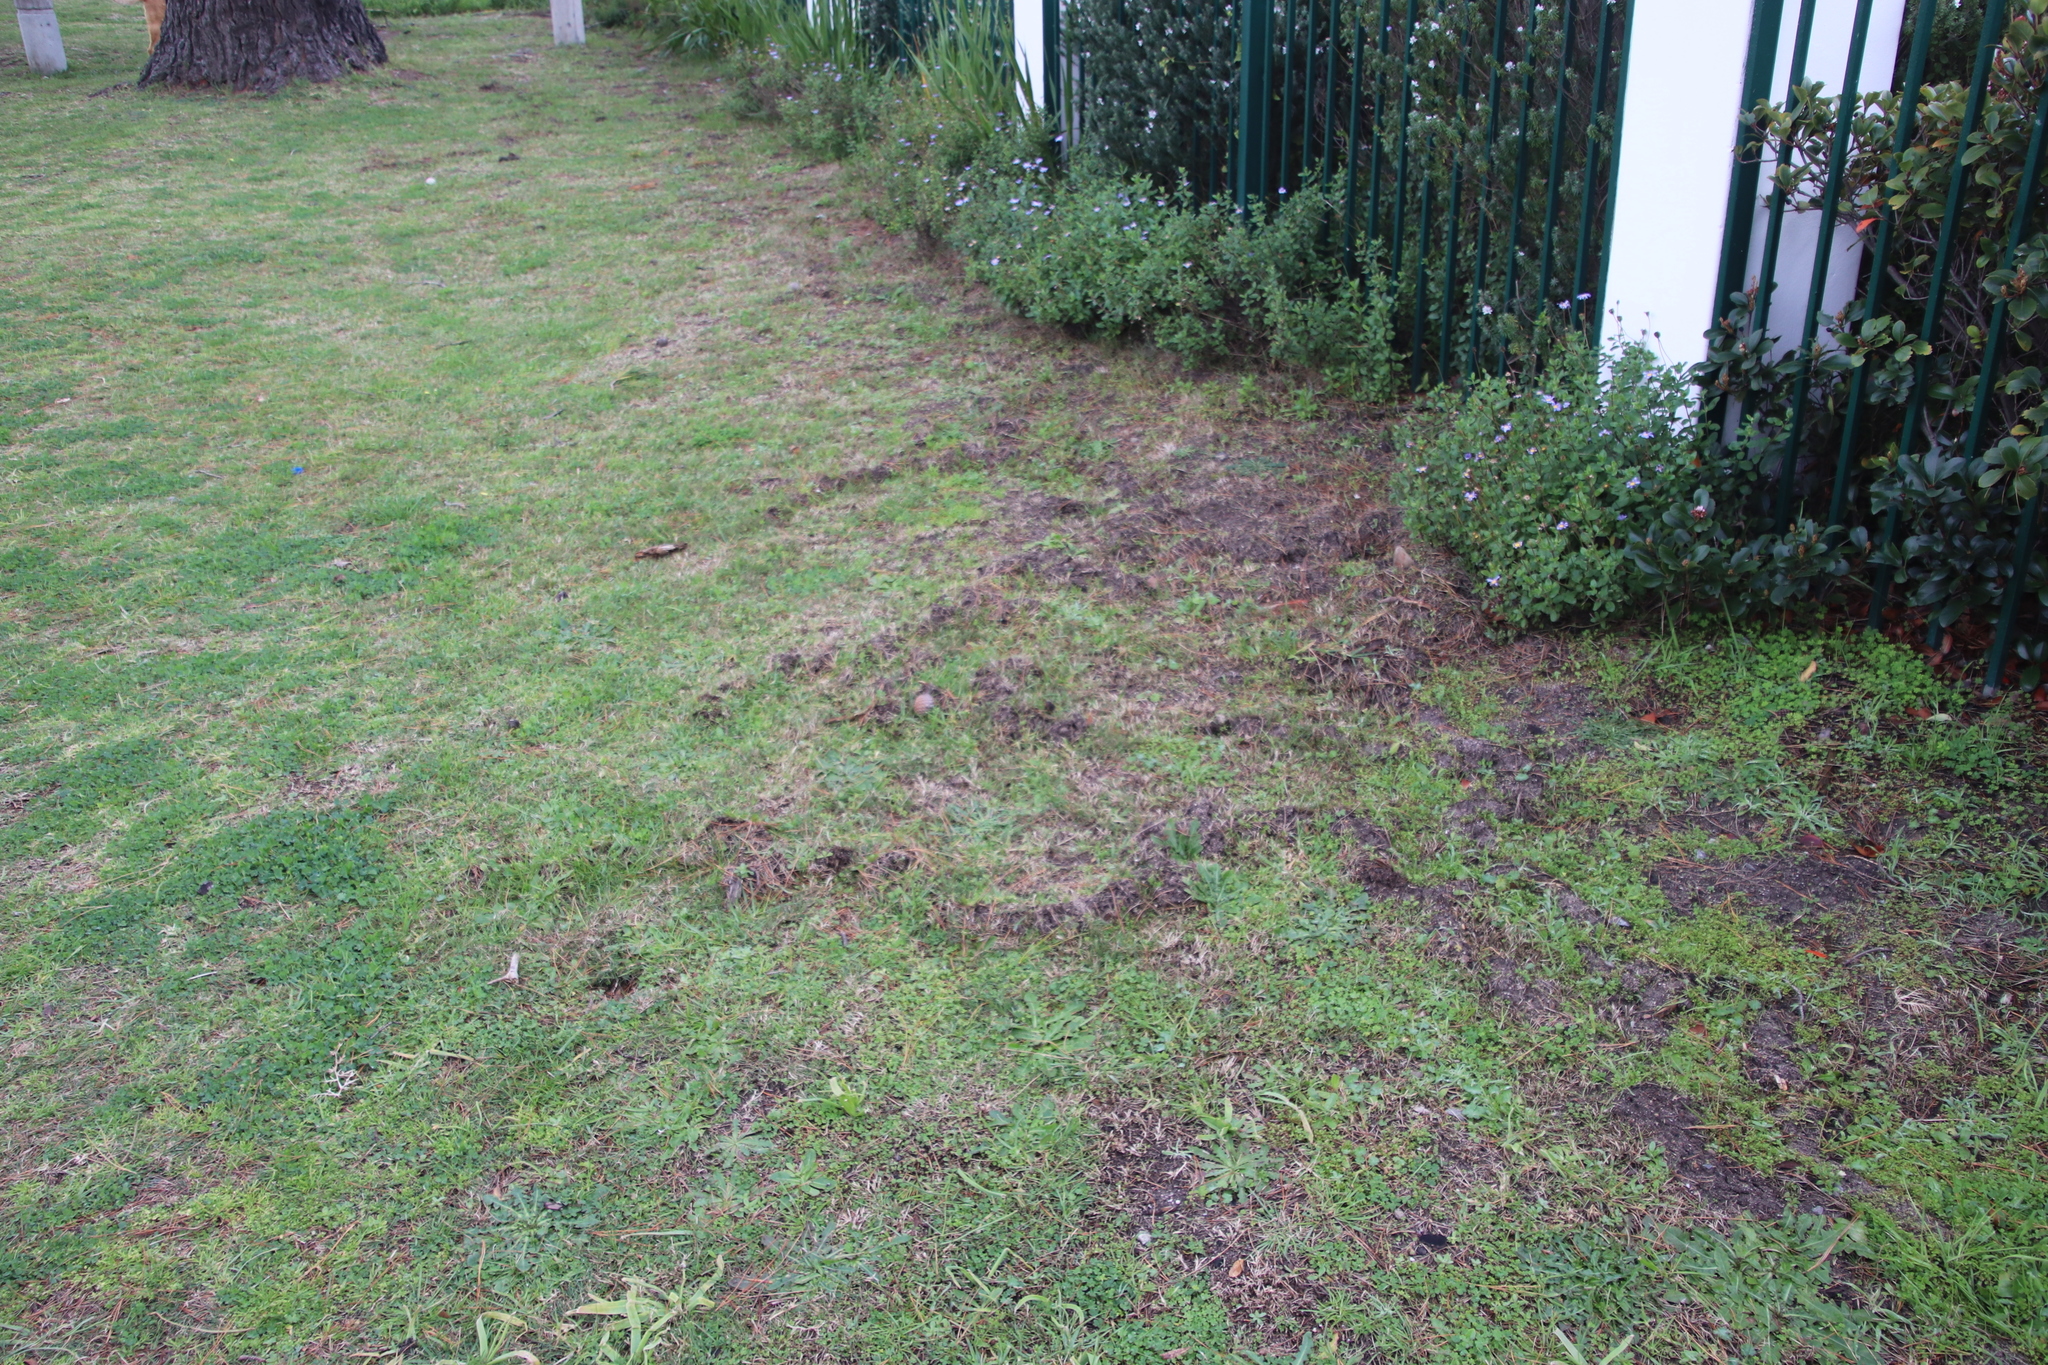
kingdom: Animalia
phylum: Chordata
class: Mammalia
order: Afrosoricida
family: Chrysochloridae
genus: Chrysochloris
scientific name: Chrysochloris asiatica
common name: Cape golden mole
